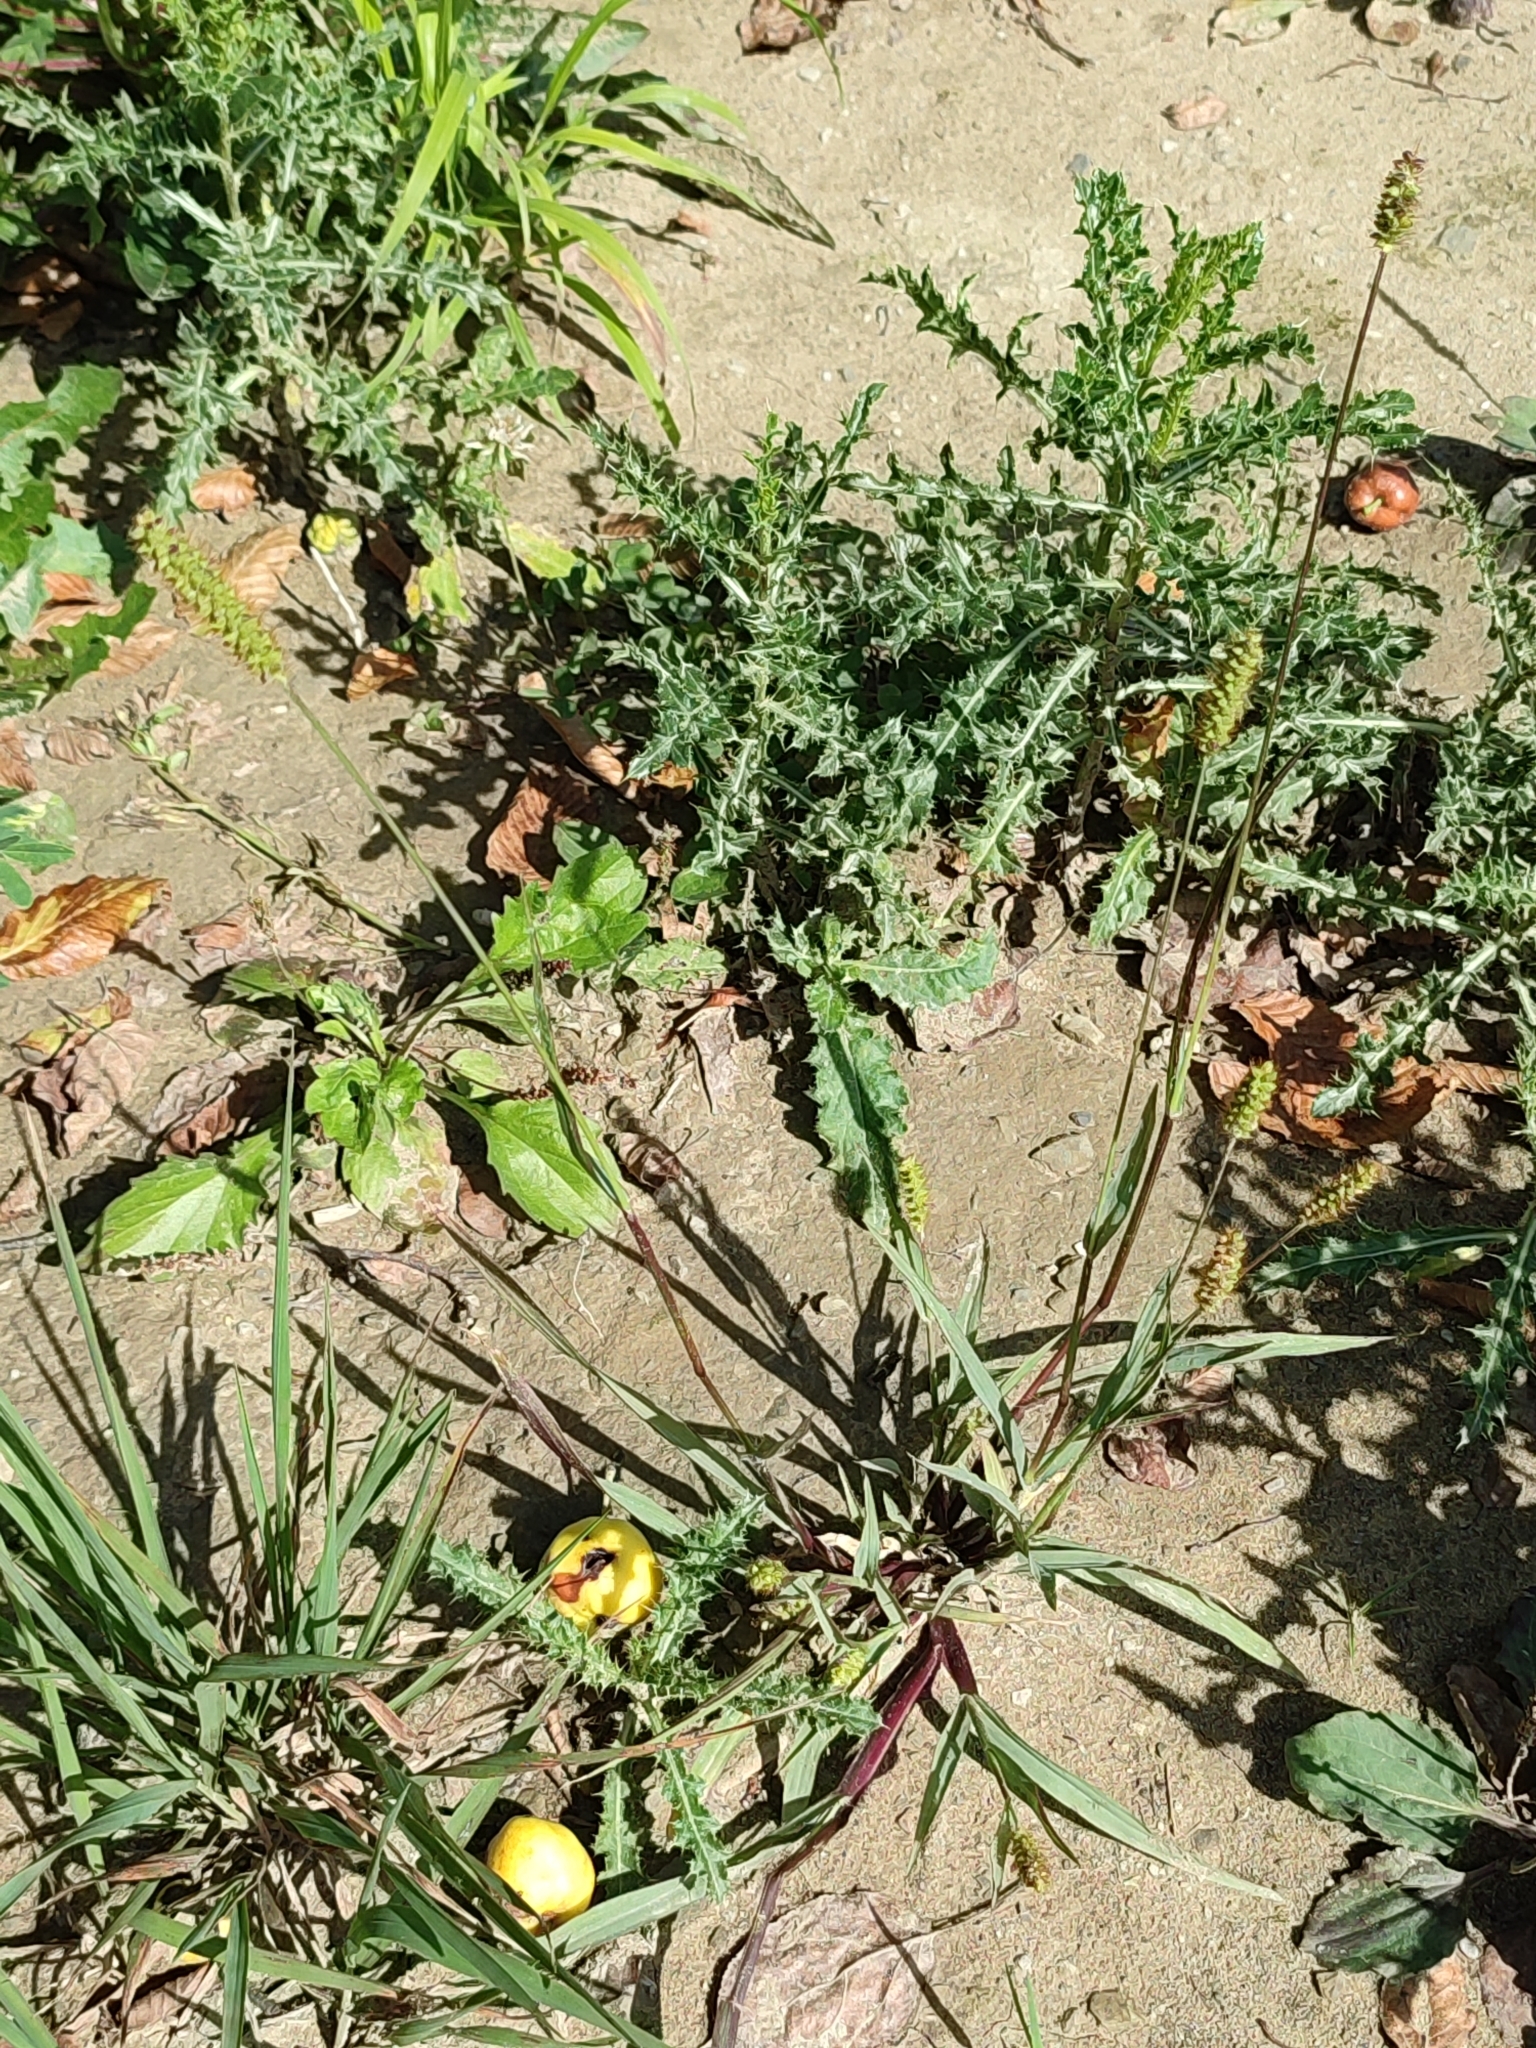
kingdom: Plantae
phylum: Tracheophyta
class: Liliopsida
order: Poales
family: Poaceae
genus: Setaria
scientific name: Setaria pumila
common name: Yellow bristle-grass
